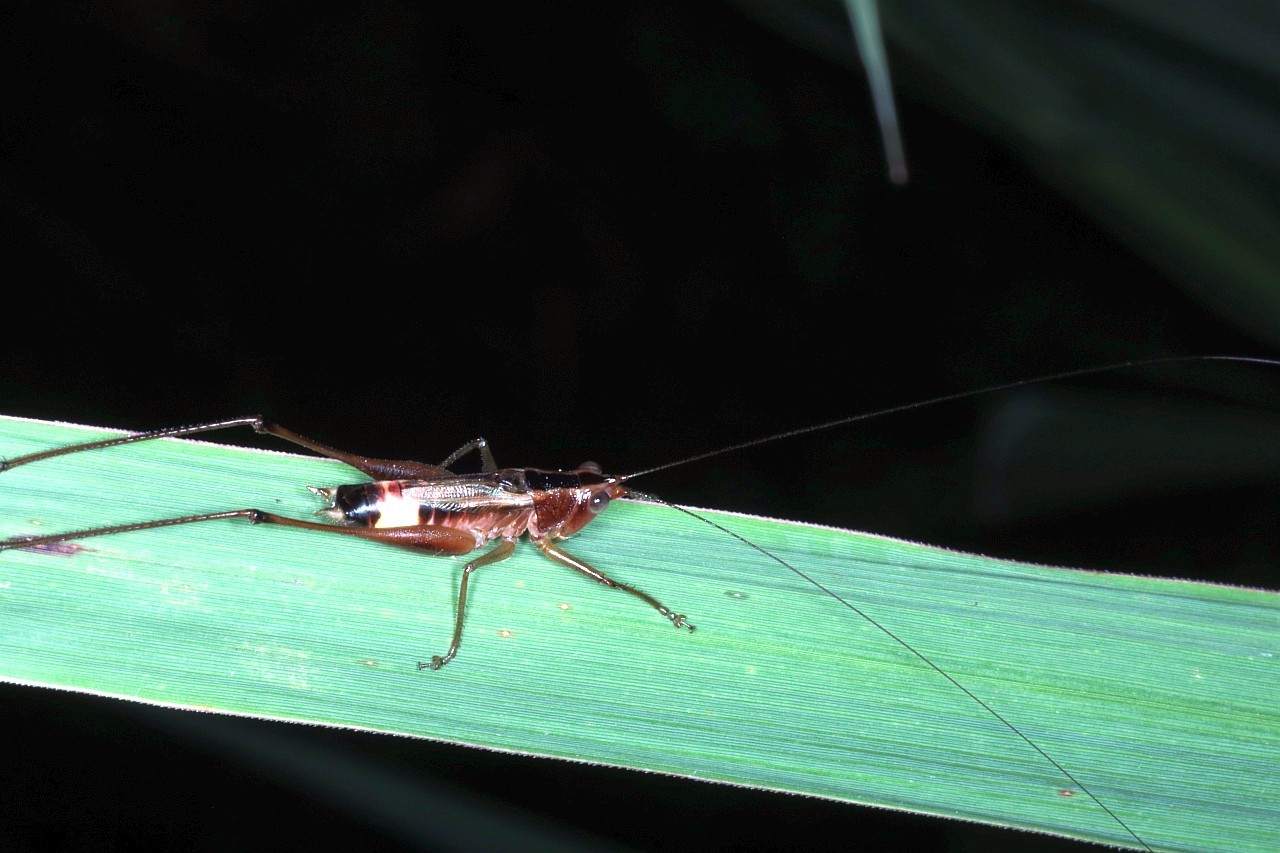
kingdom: Animalia
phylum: Arthropoda
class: Insecta
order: Orthoptera
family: Tettigoniidae
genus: Conocephalus
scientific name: Conocephalus versicolor
